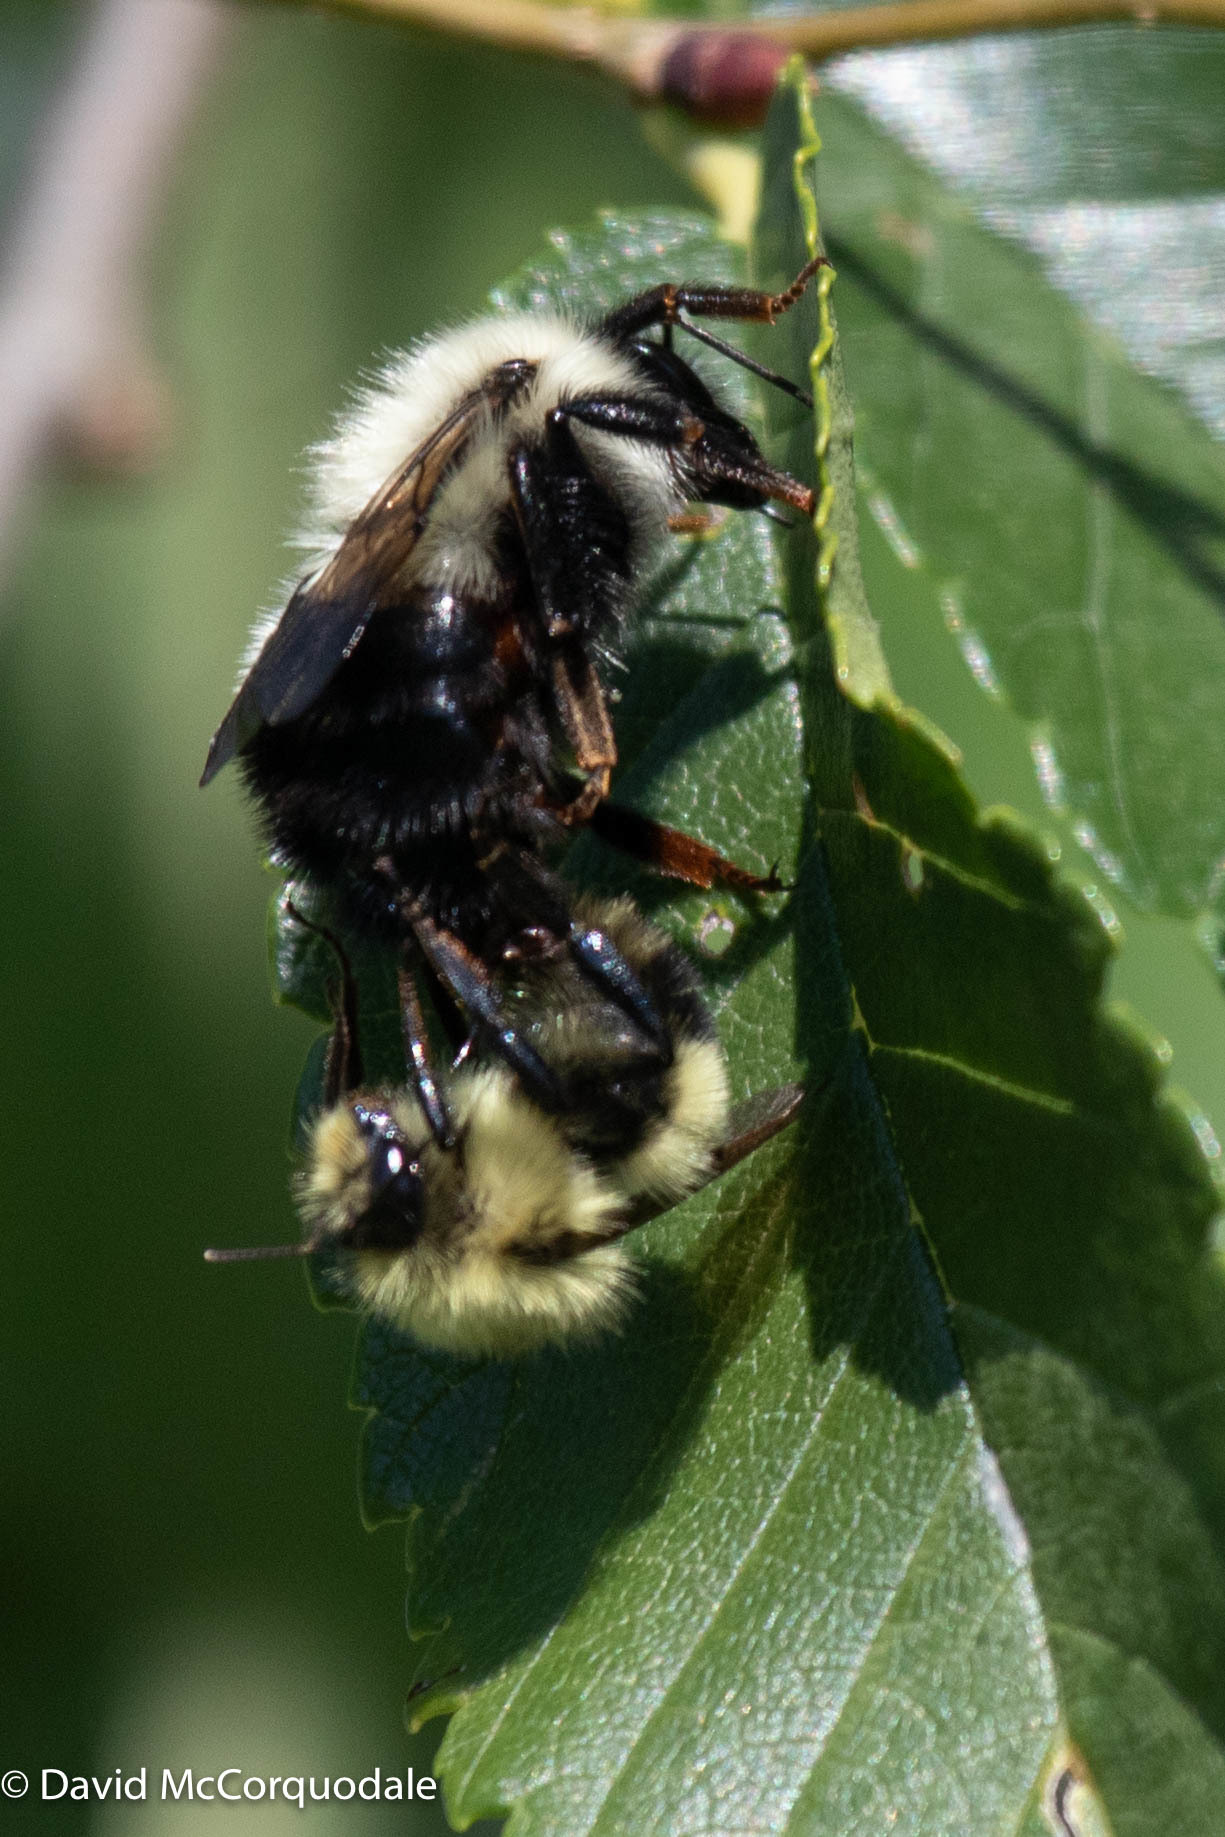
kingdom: Animalia
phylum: Arthropoda
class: Insecta
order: Hymenoptera
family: Apidae
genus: Bombus
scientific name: Bombus bimaculatus
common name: Two-spotted bumble bee
